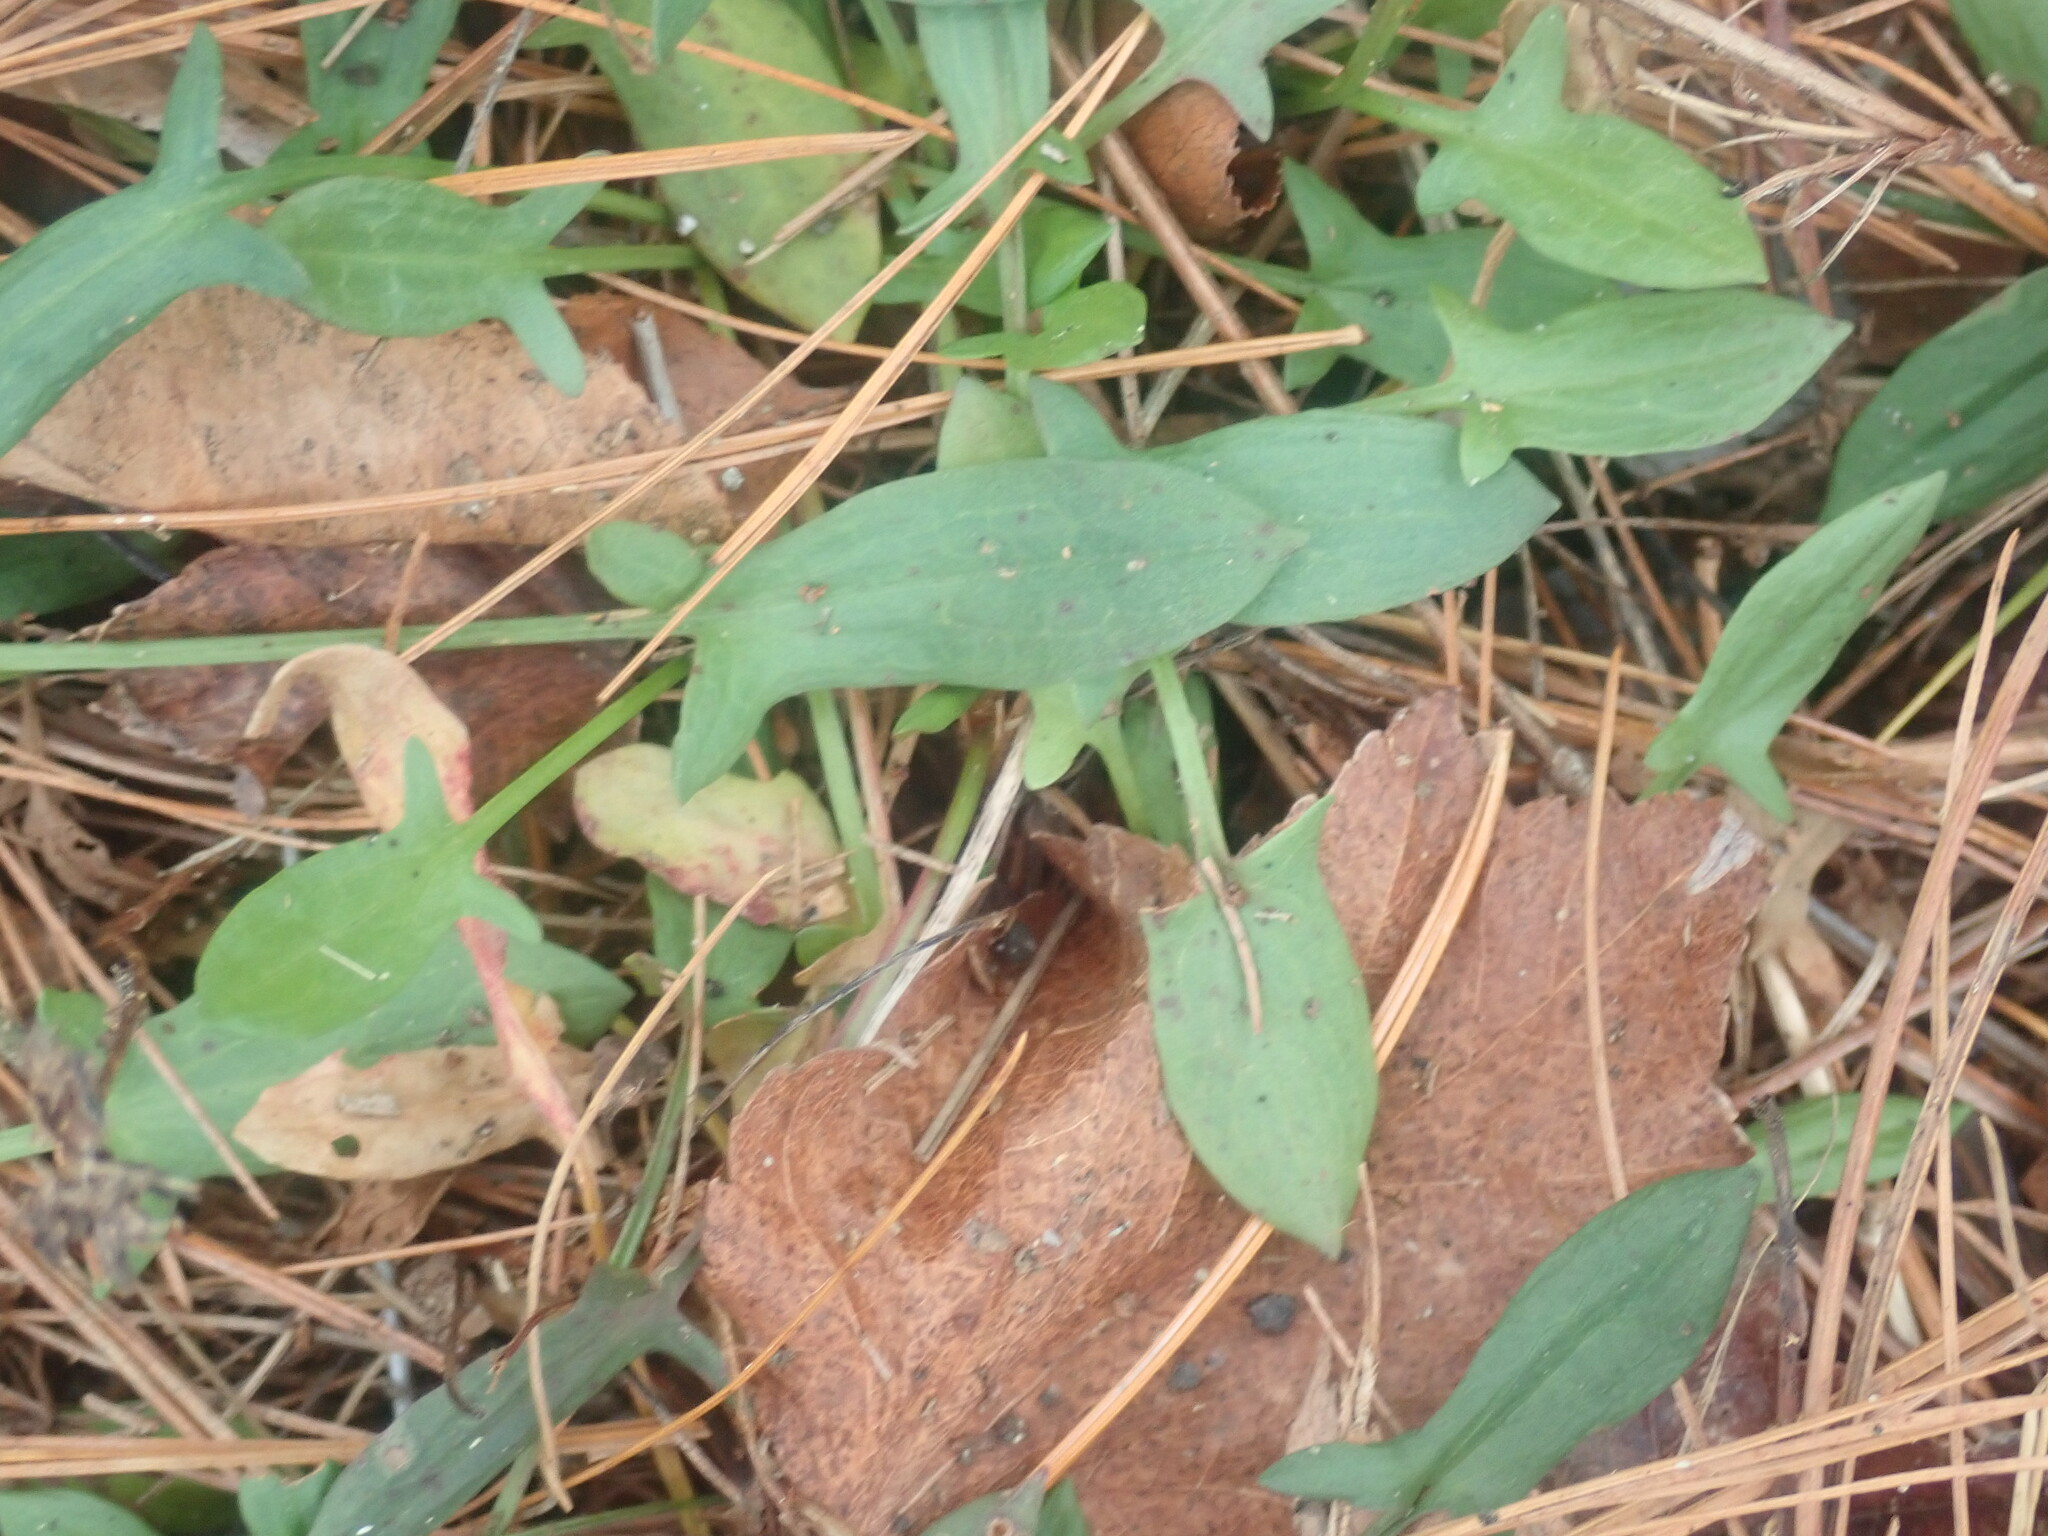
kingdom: Plantae
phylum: Tracheophyta
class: Magnoliopsida
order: Caryophyllales
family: Polygonaceae
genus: Rumex
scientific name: Rumex acetosella
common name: Common sheep sorrel
